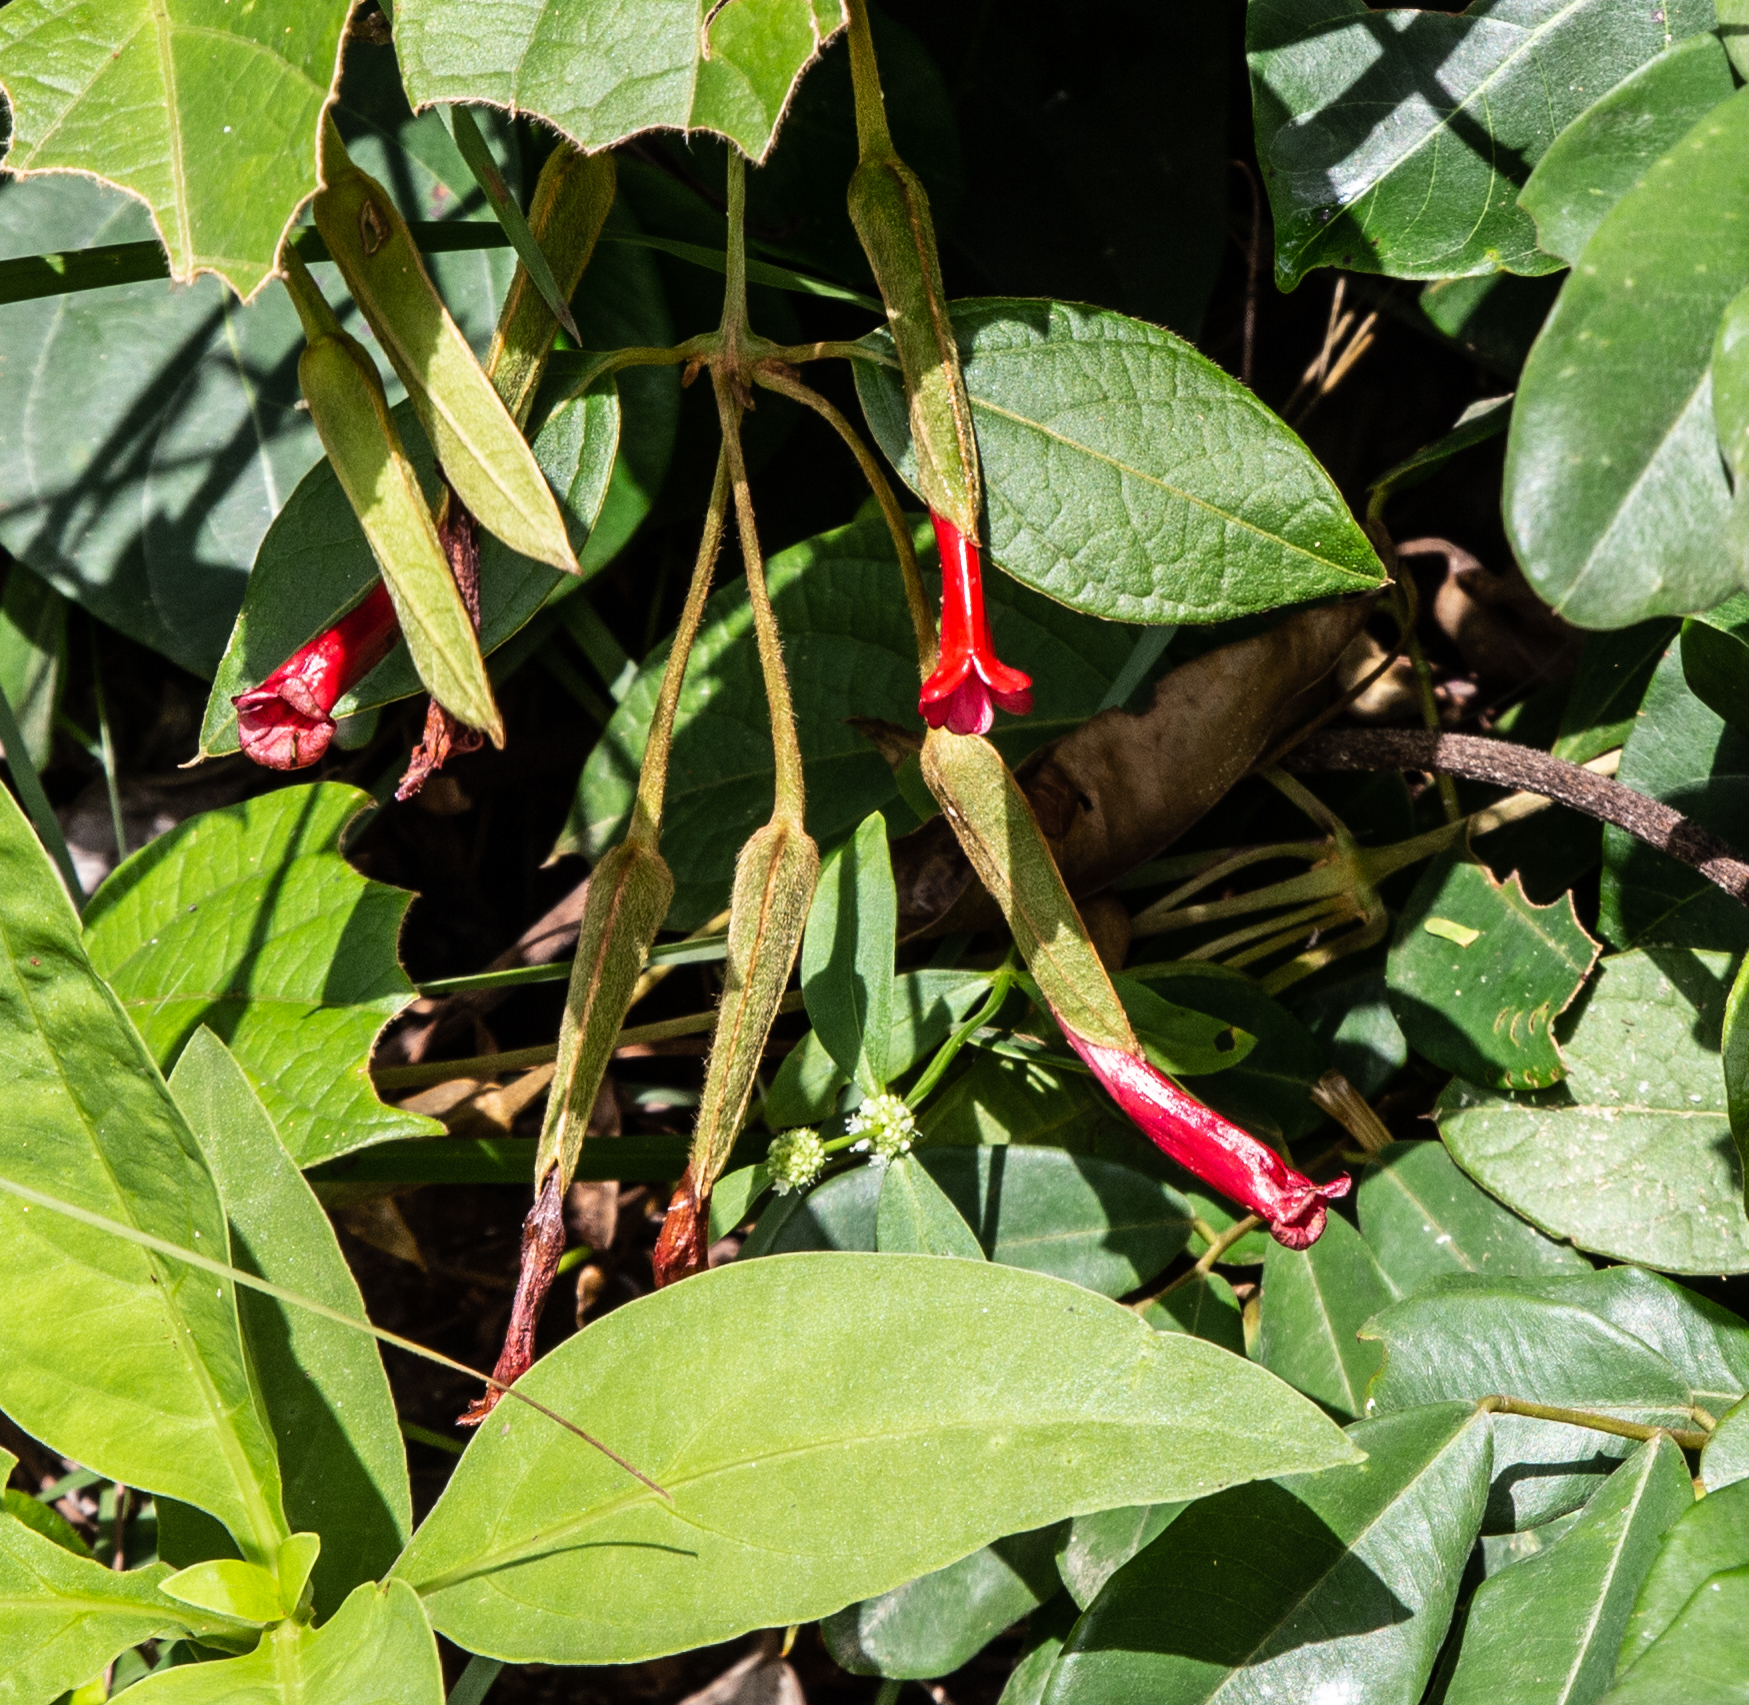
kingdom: Plantae
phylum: Tracheophyta
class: Magnoliopsida
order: Lamiales
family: Acanthaceae
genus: Mendoncia
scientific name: Mendoncia hoffmannseggiana
